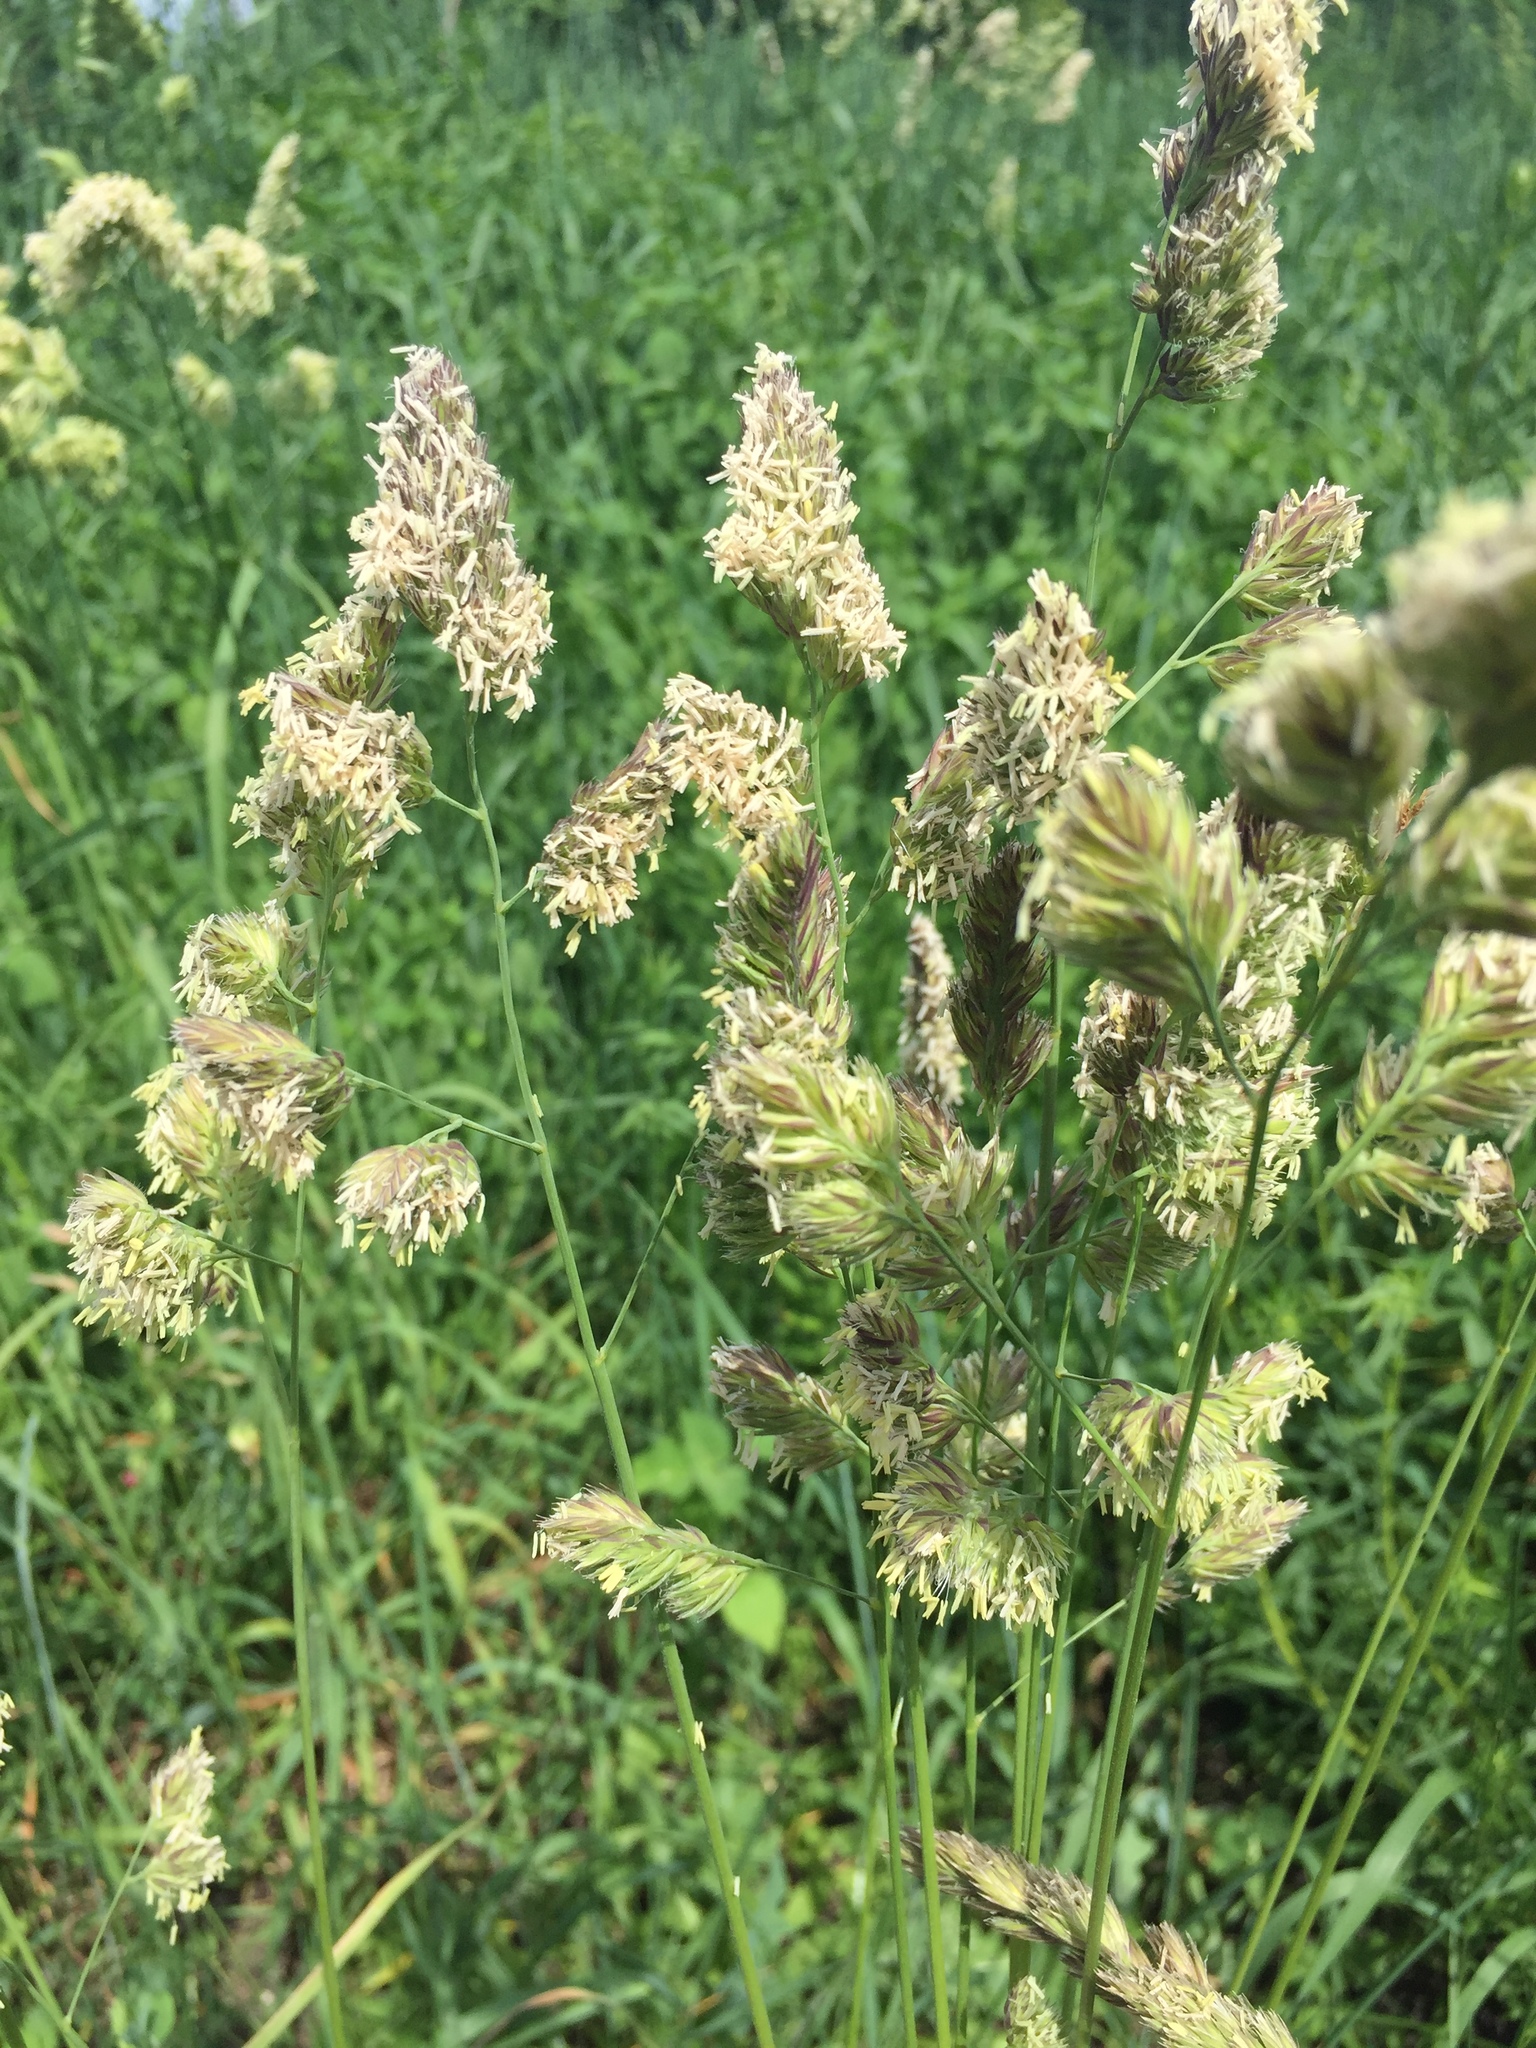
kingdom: Plantae
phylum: Tracheophyta
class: Liliopsida
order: Poales
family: Poaceae
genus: Dactylis
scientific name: Dactylis glomerata
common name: Orchardgrass
